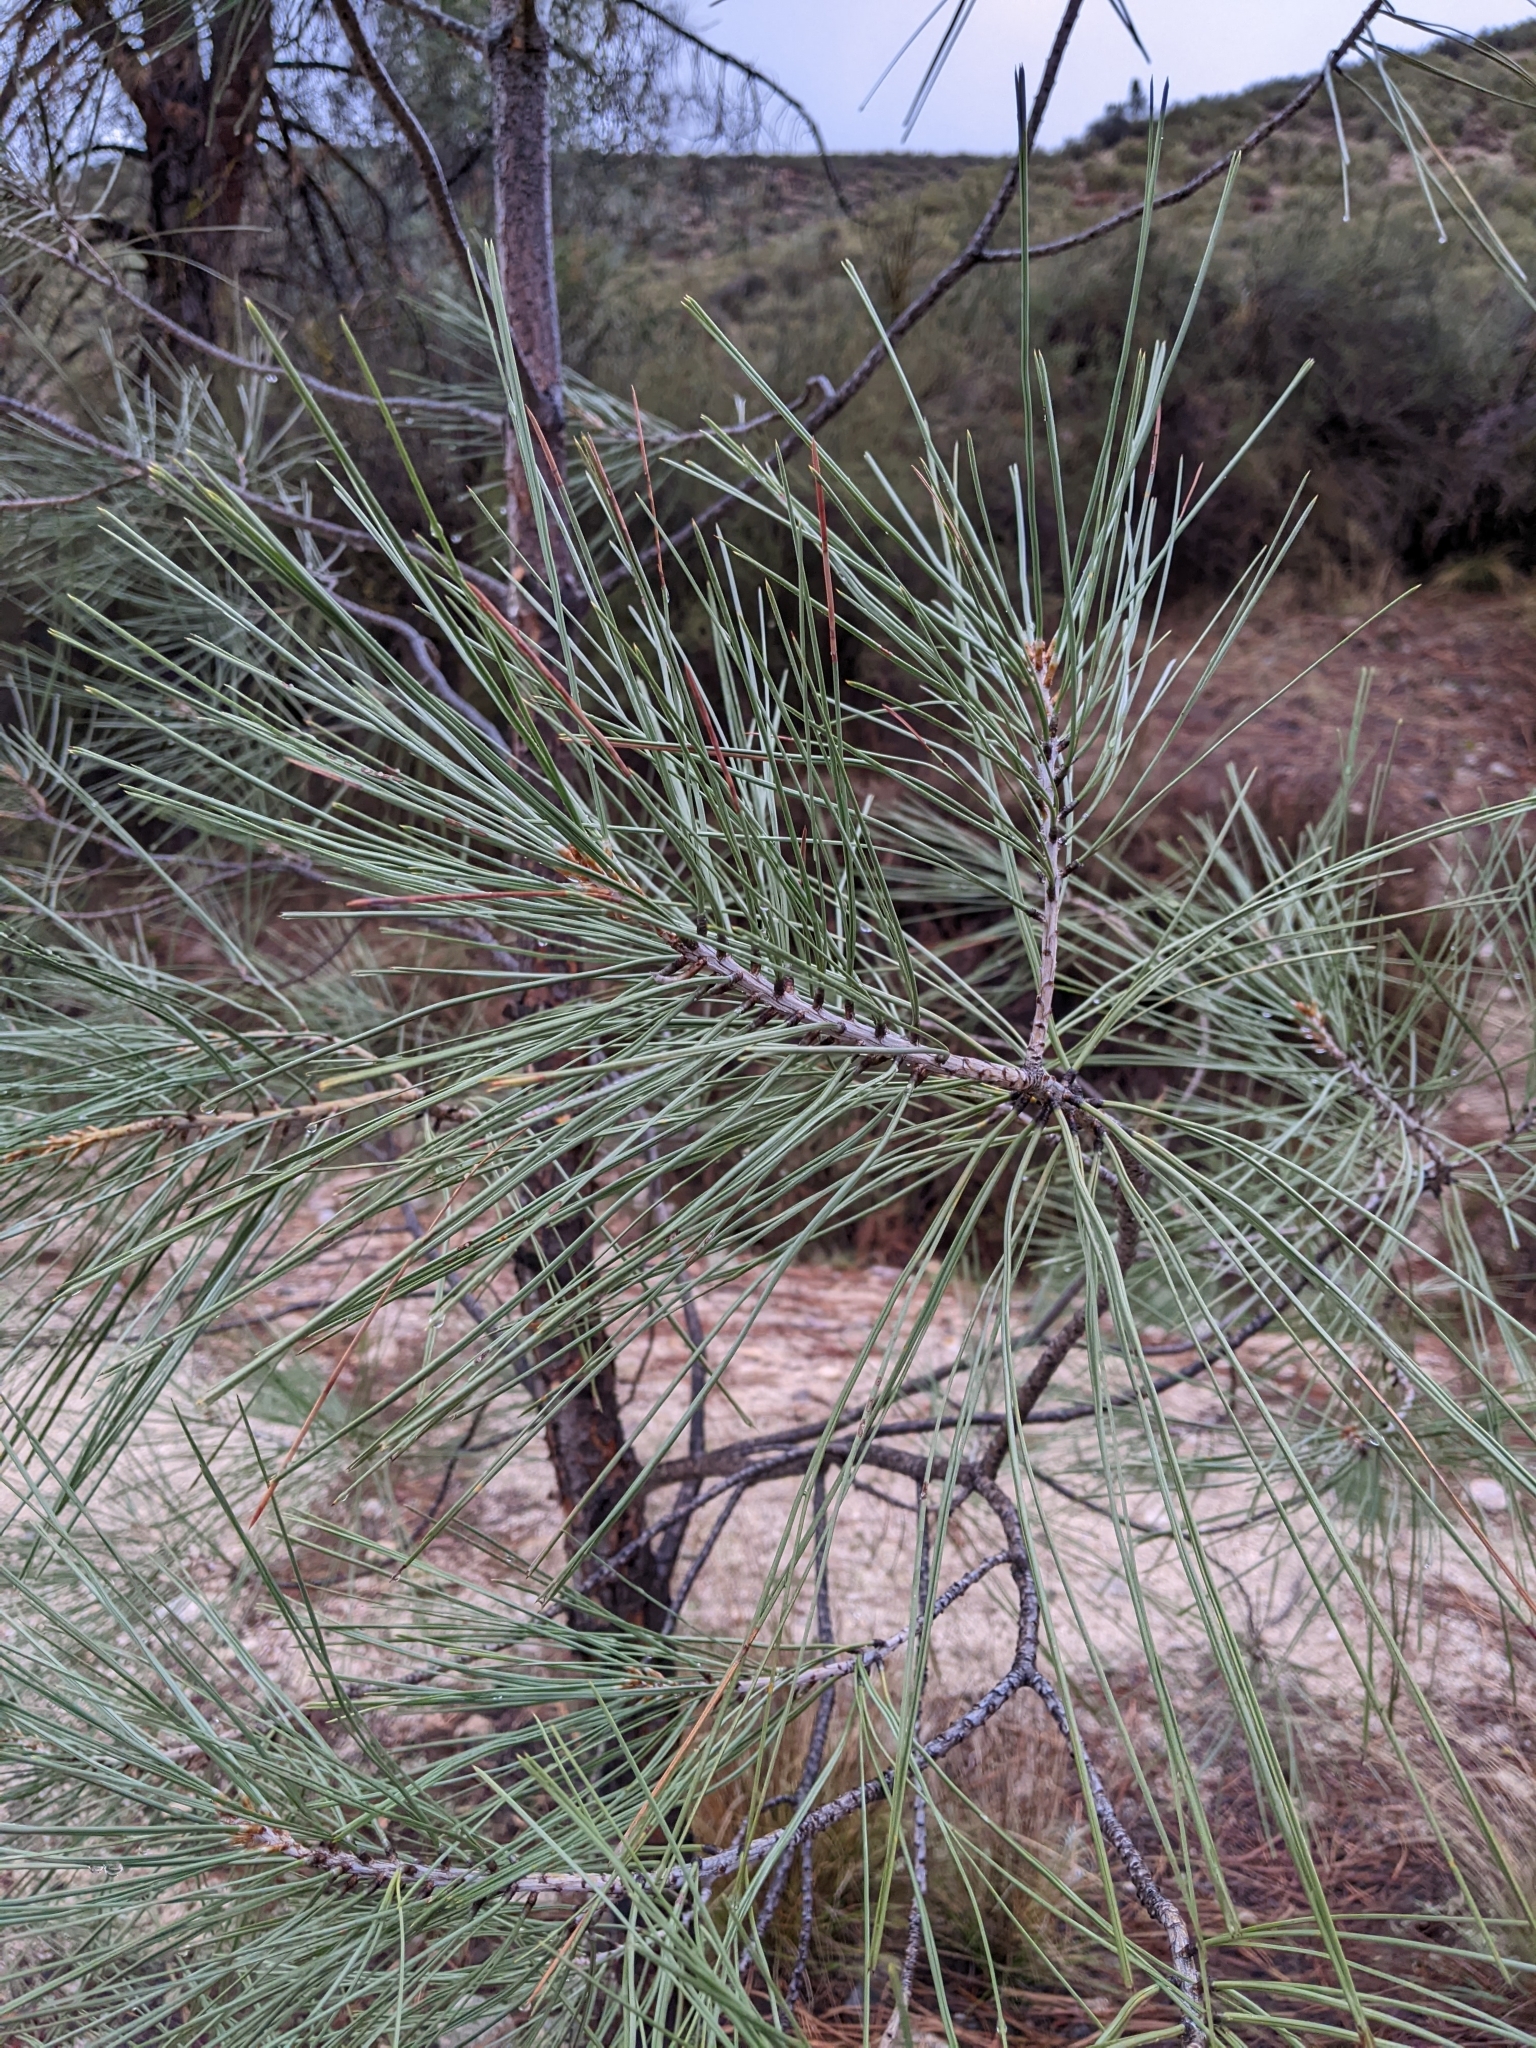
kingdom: Plantae
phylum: Tracheophyta
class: Pinopsida
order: Pinales
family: Pinaceae
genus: Pinus
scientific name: Pinus sabiniana
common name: Bull pine
